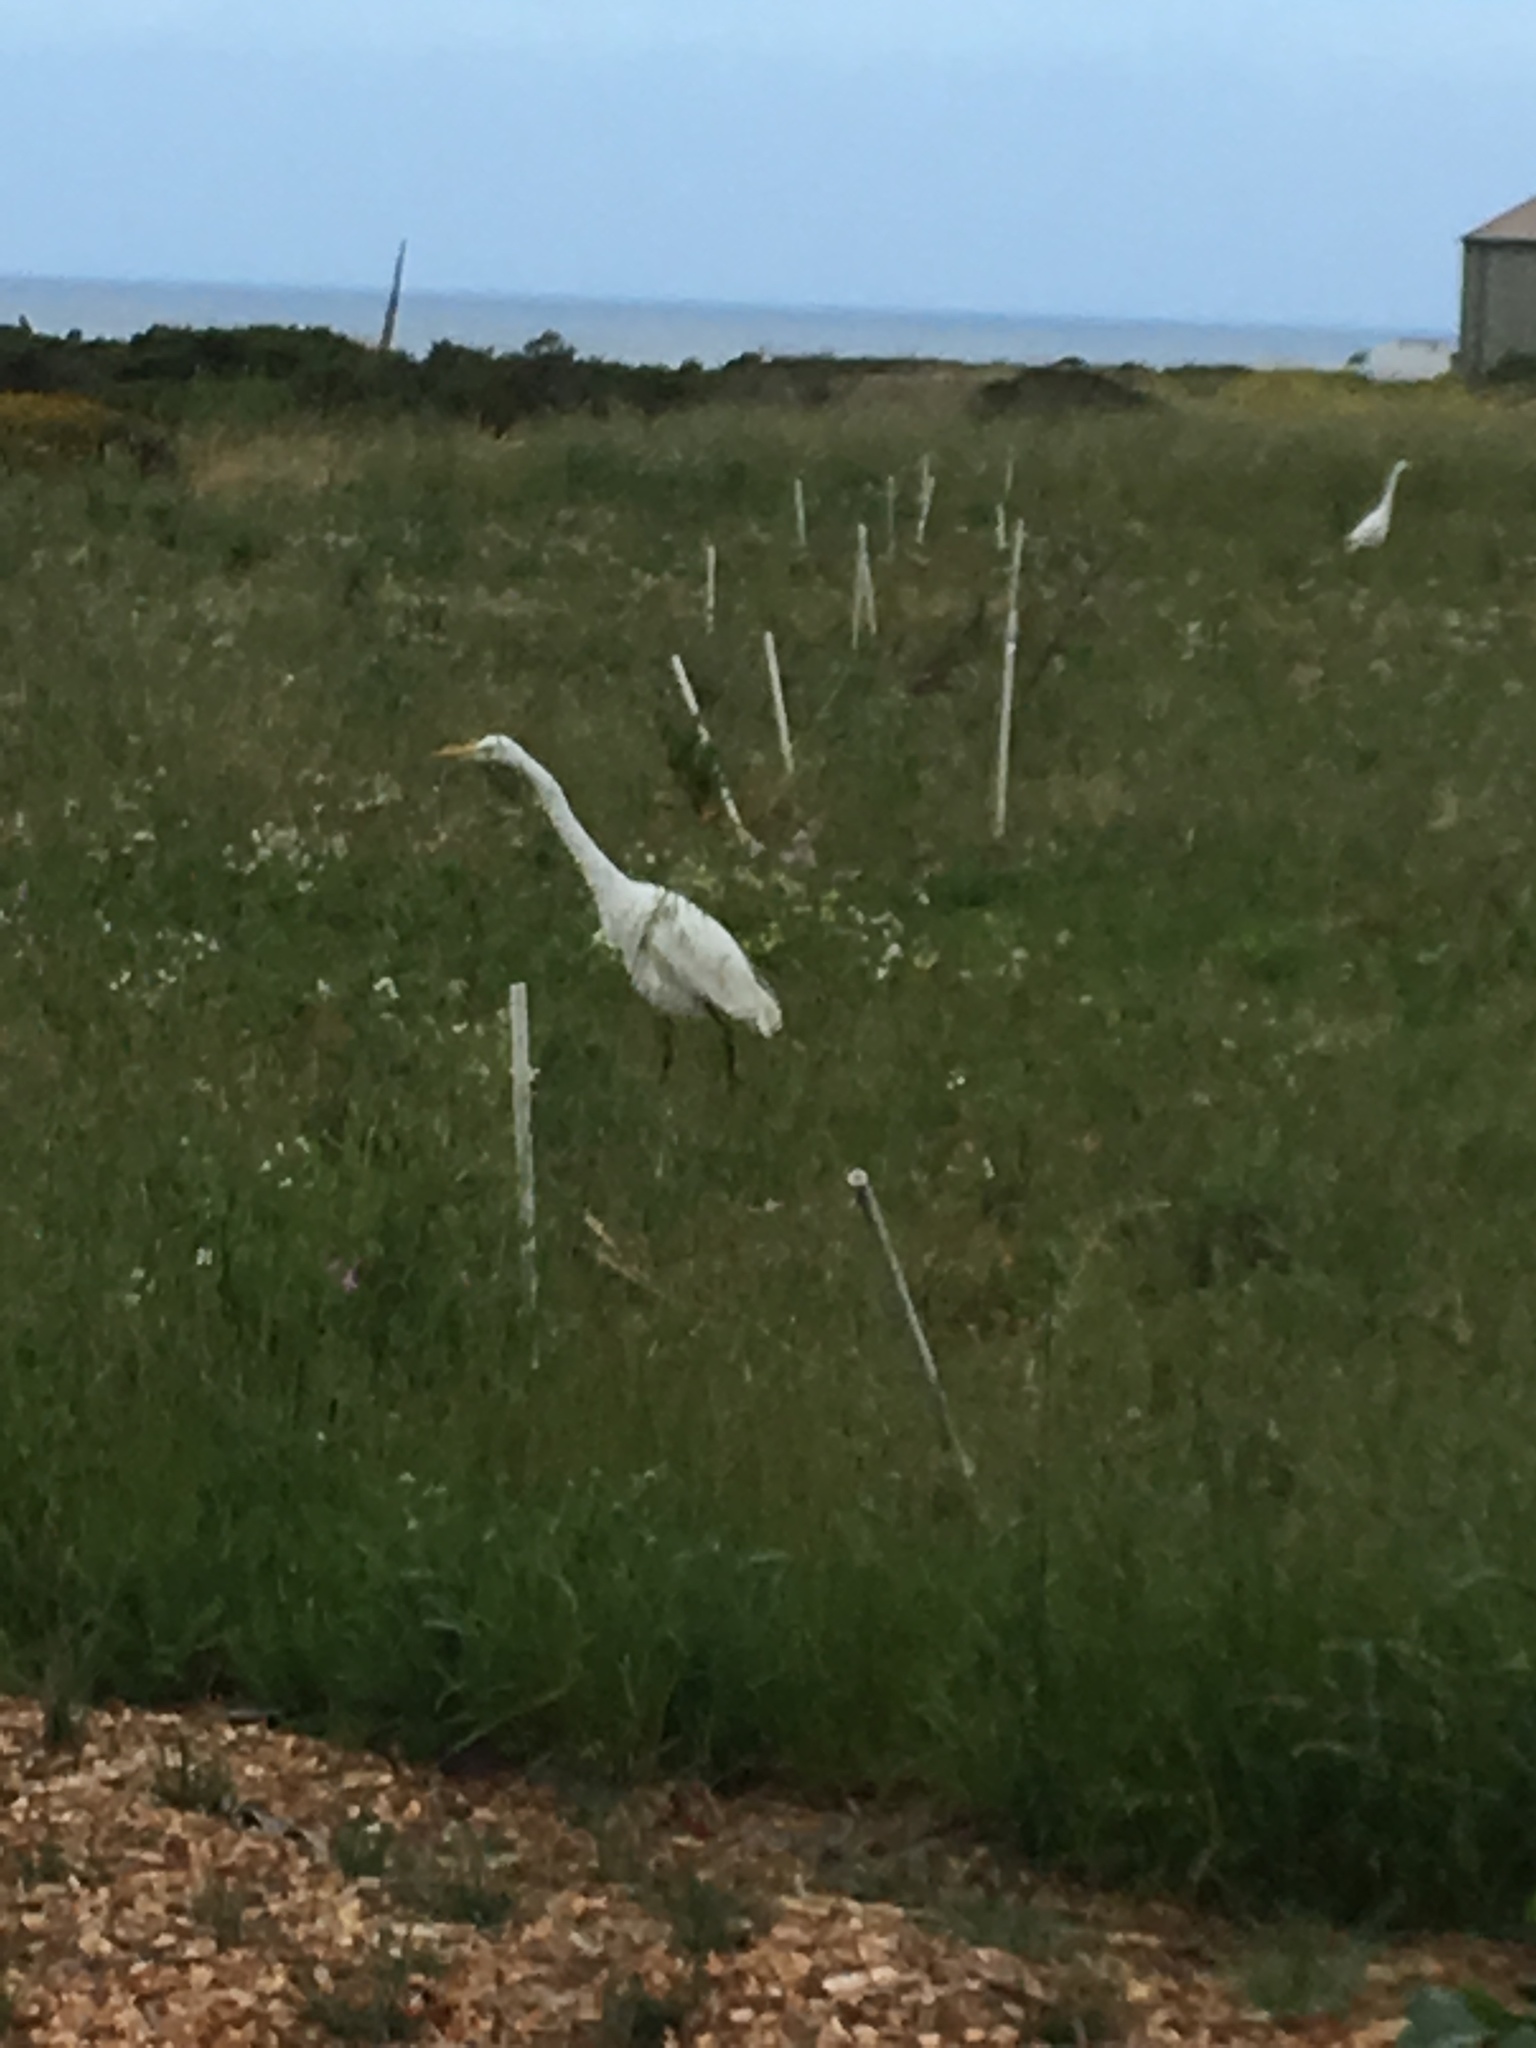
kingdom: Animalia
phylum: Chordata
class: Aves
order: Pelecaniformes
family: Ardeidae
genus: Ardea
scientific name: Ardea alba
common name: Great egret
